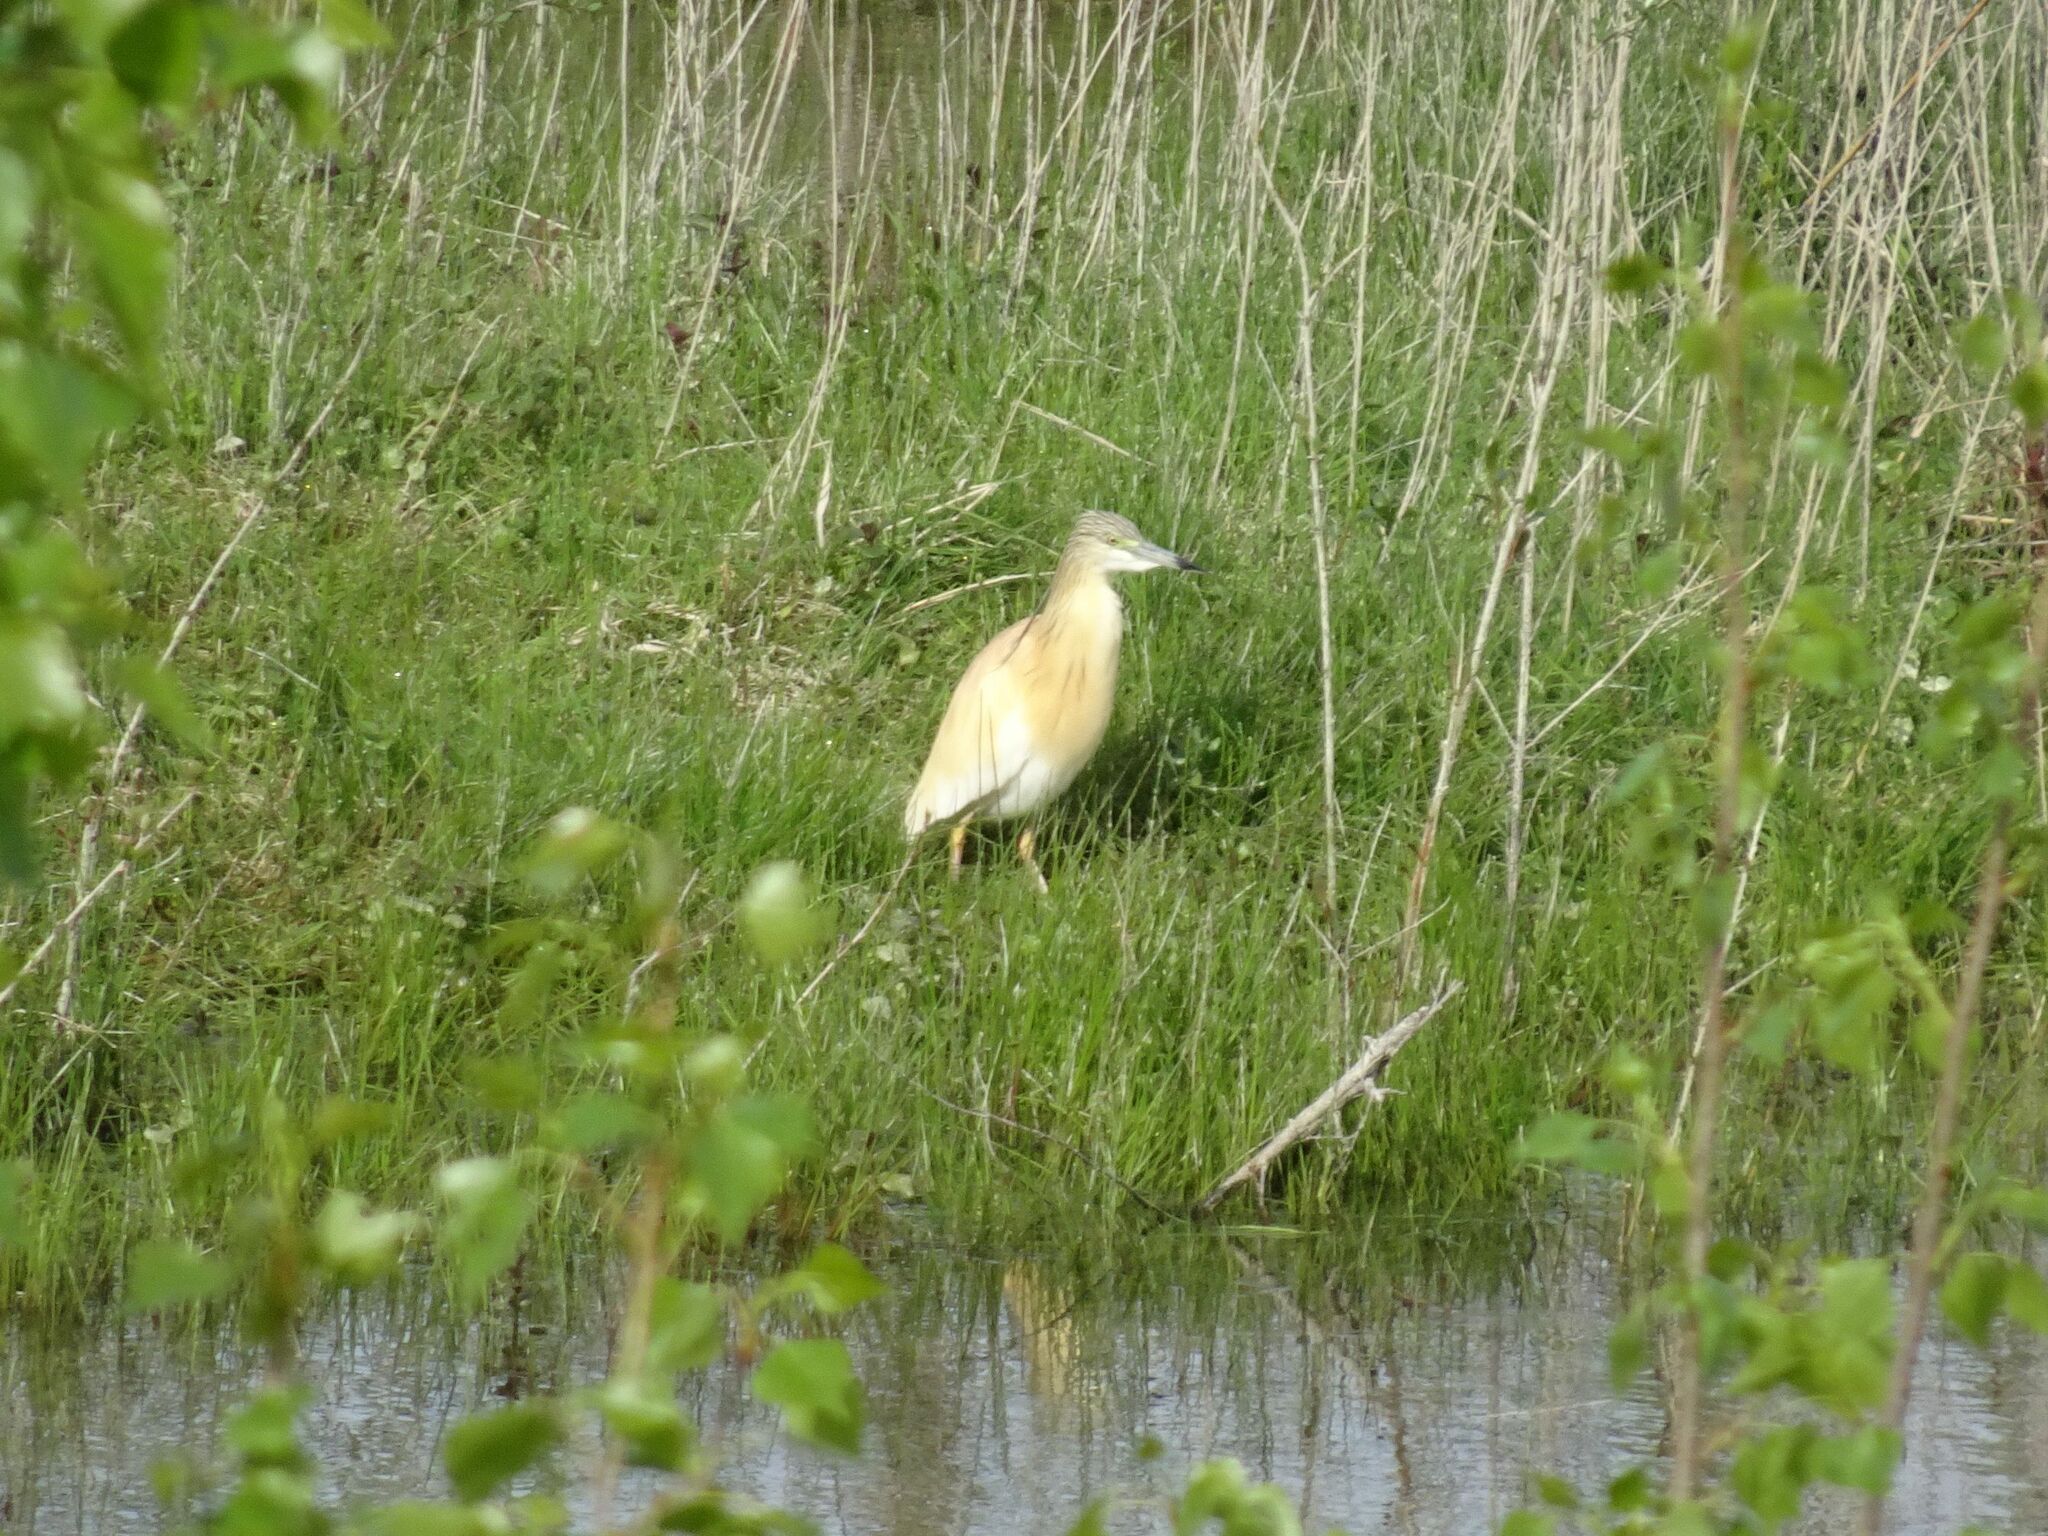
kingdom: Animalia
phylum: Chordata
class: Aves
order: Pelecaniformes
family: Ardeidae
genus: Ardeola
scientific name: Ardeola ralloides
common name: Squacco heron
